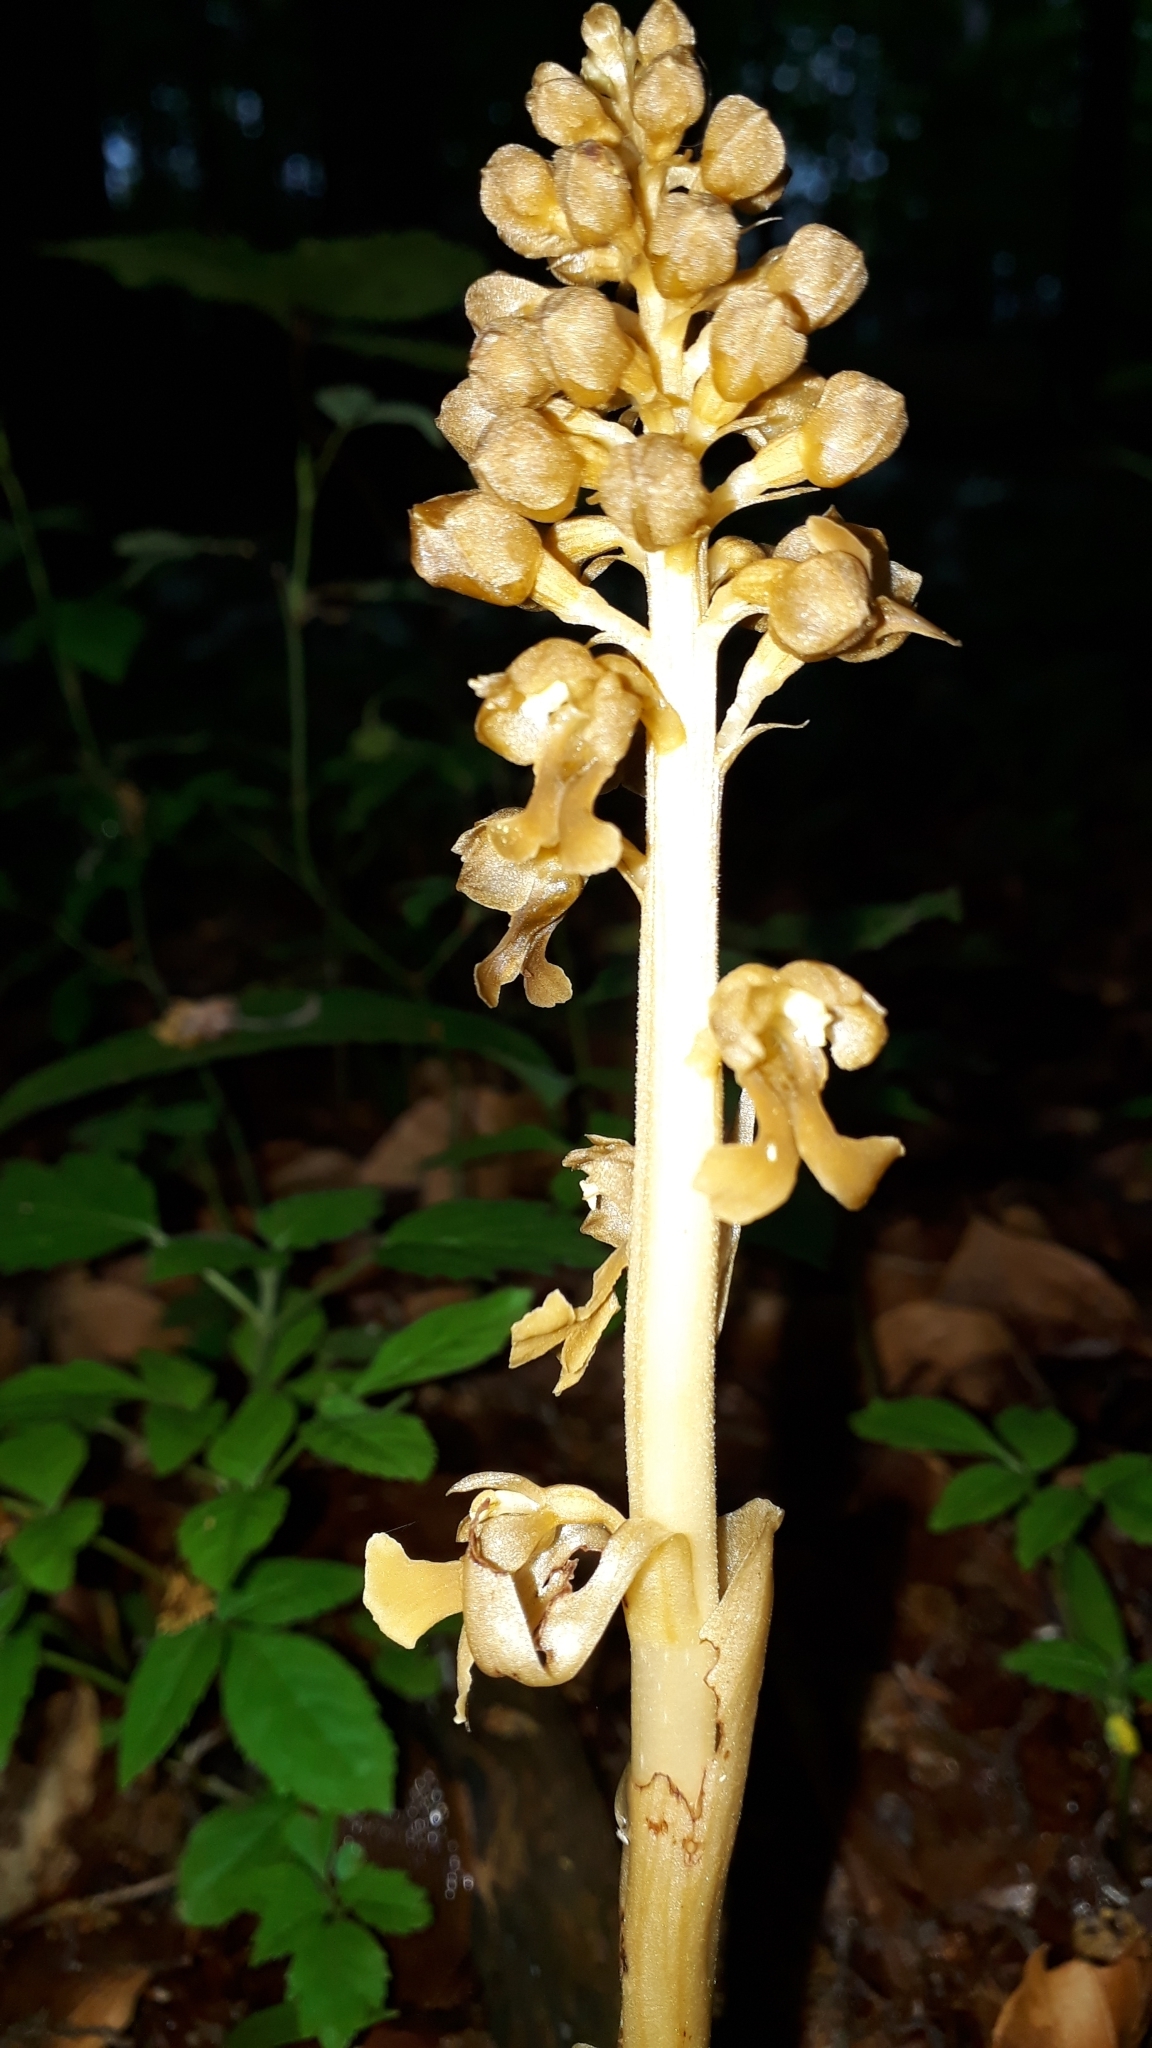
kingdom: Plantae
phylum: Tracheophyta
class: Liliopsida
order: Asparagales
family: Orchidaceae
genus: Neottia
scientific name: Neottia nidus-avis
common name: Bird's-nest orchid
